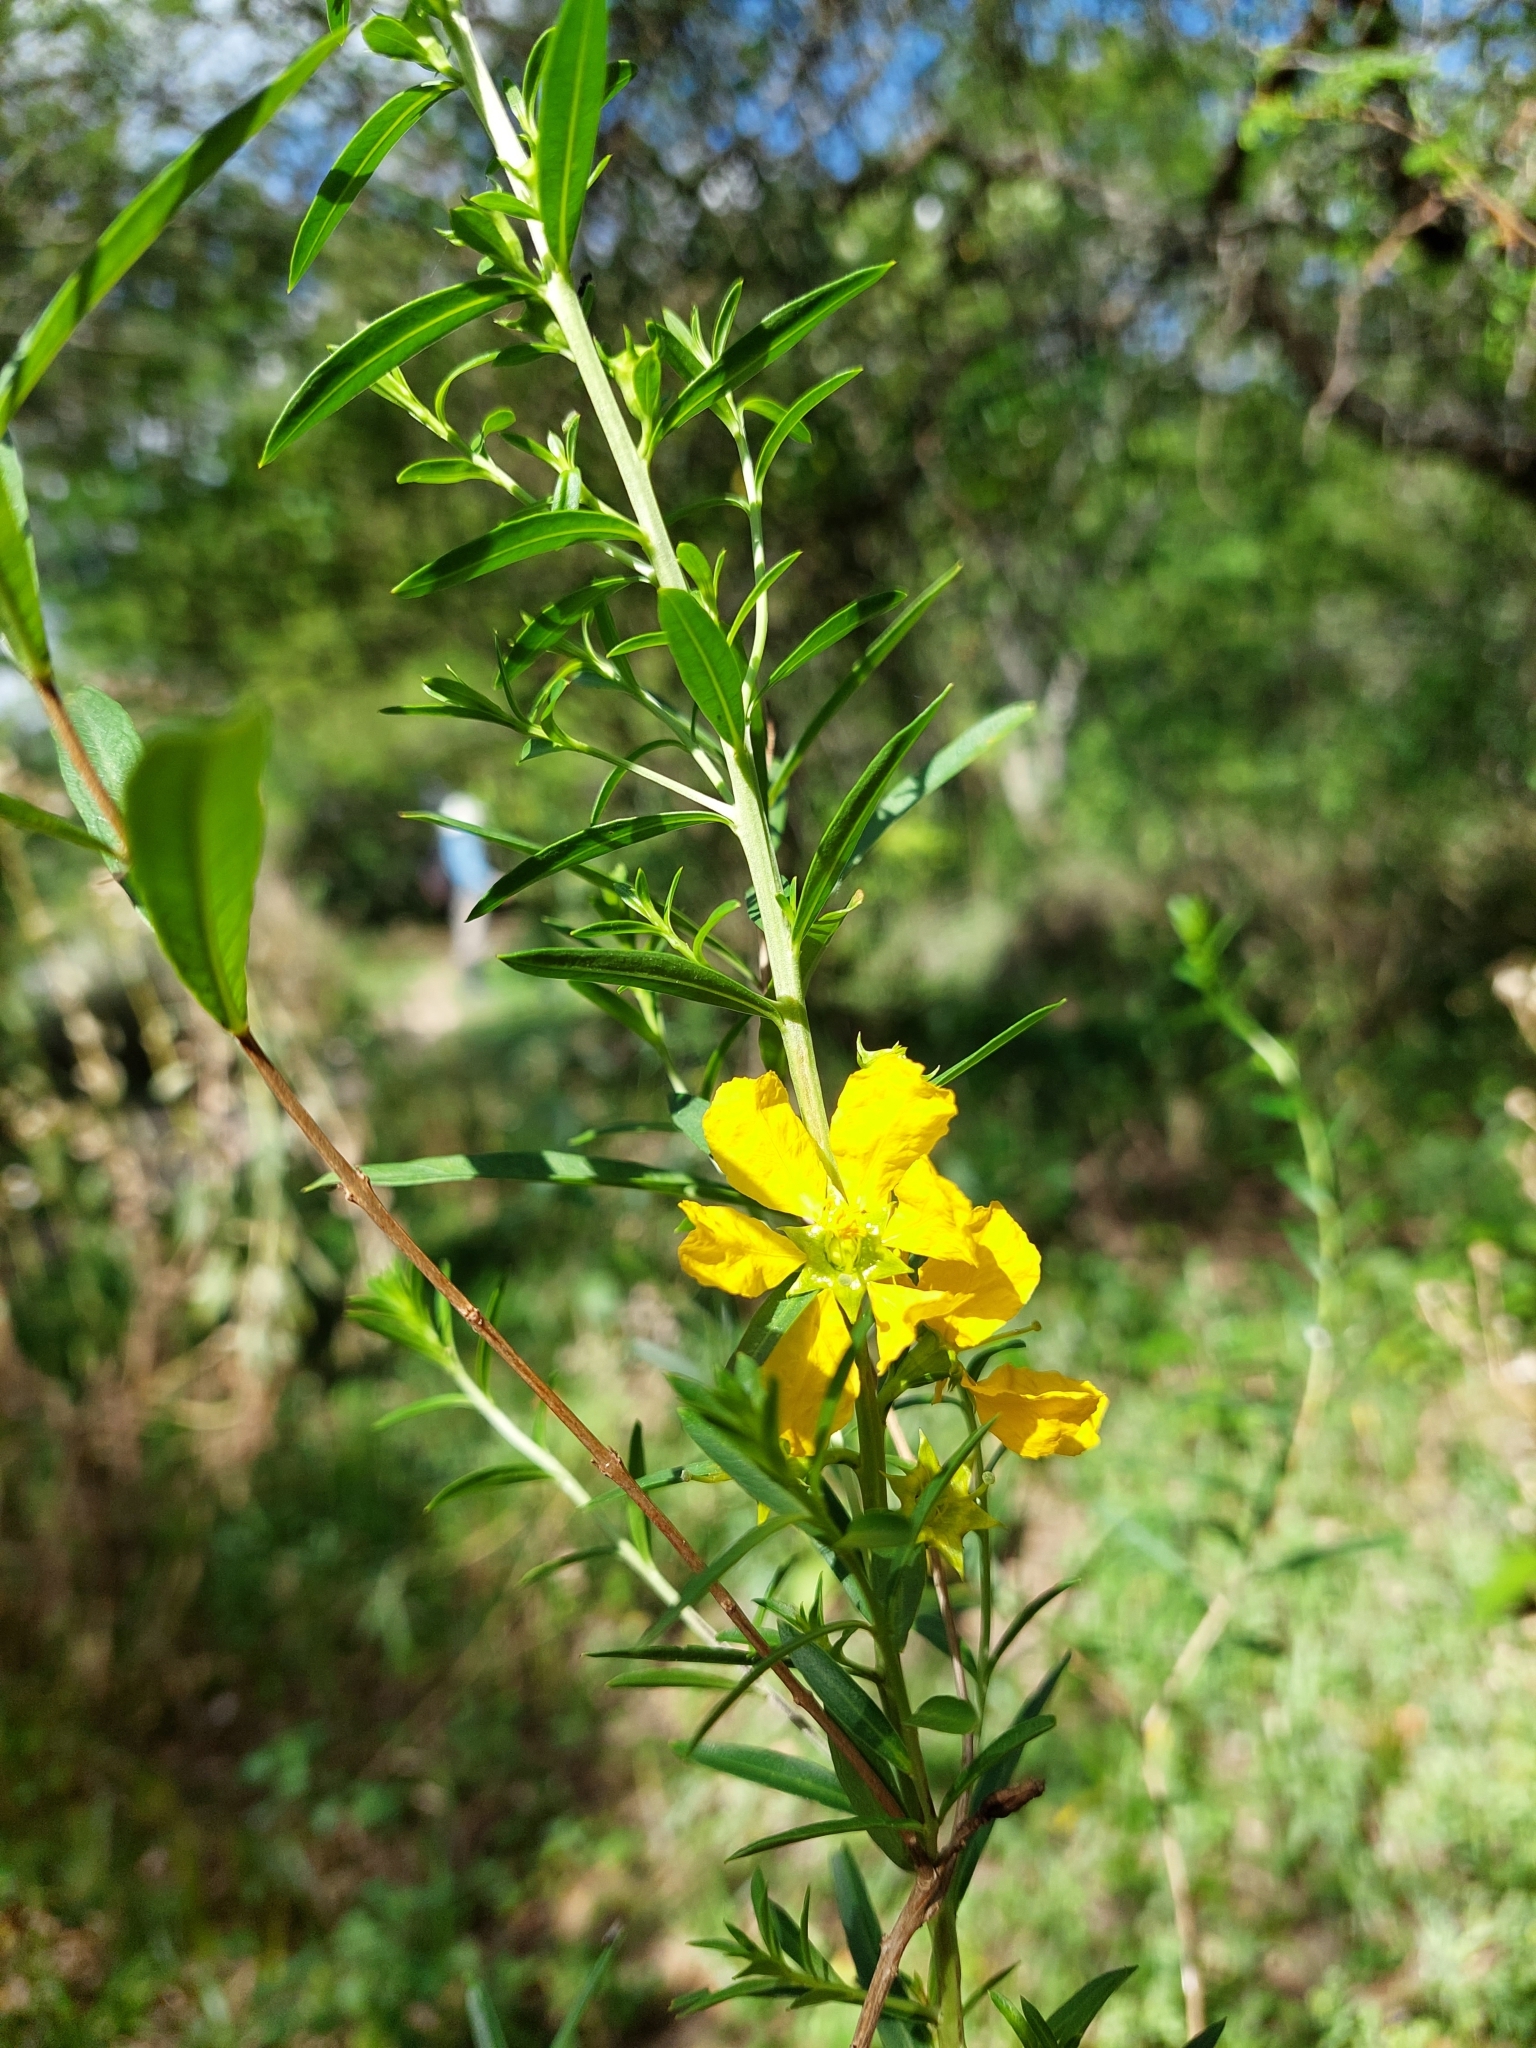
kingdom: Plantae
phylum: Tracheophyta
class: Magnoliopsida
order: Myrtales
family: Lythraceae
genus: Heimia
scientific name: Heimia salicifolia
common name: Willow-leaf heimia
